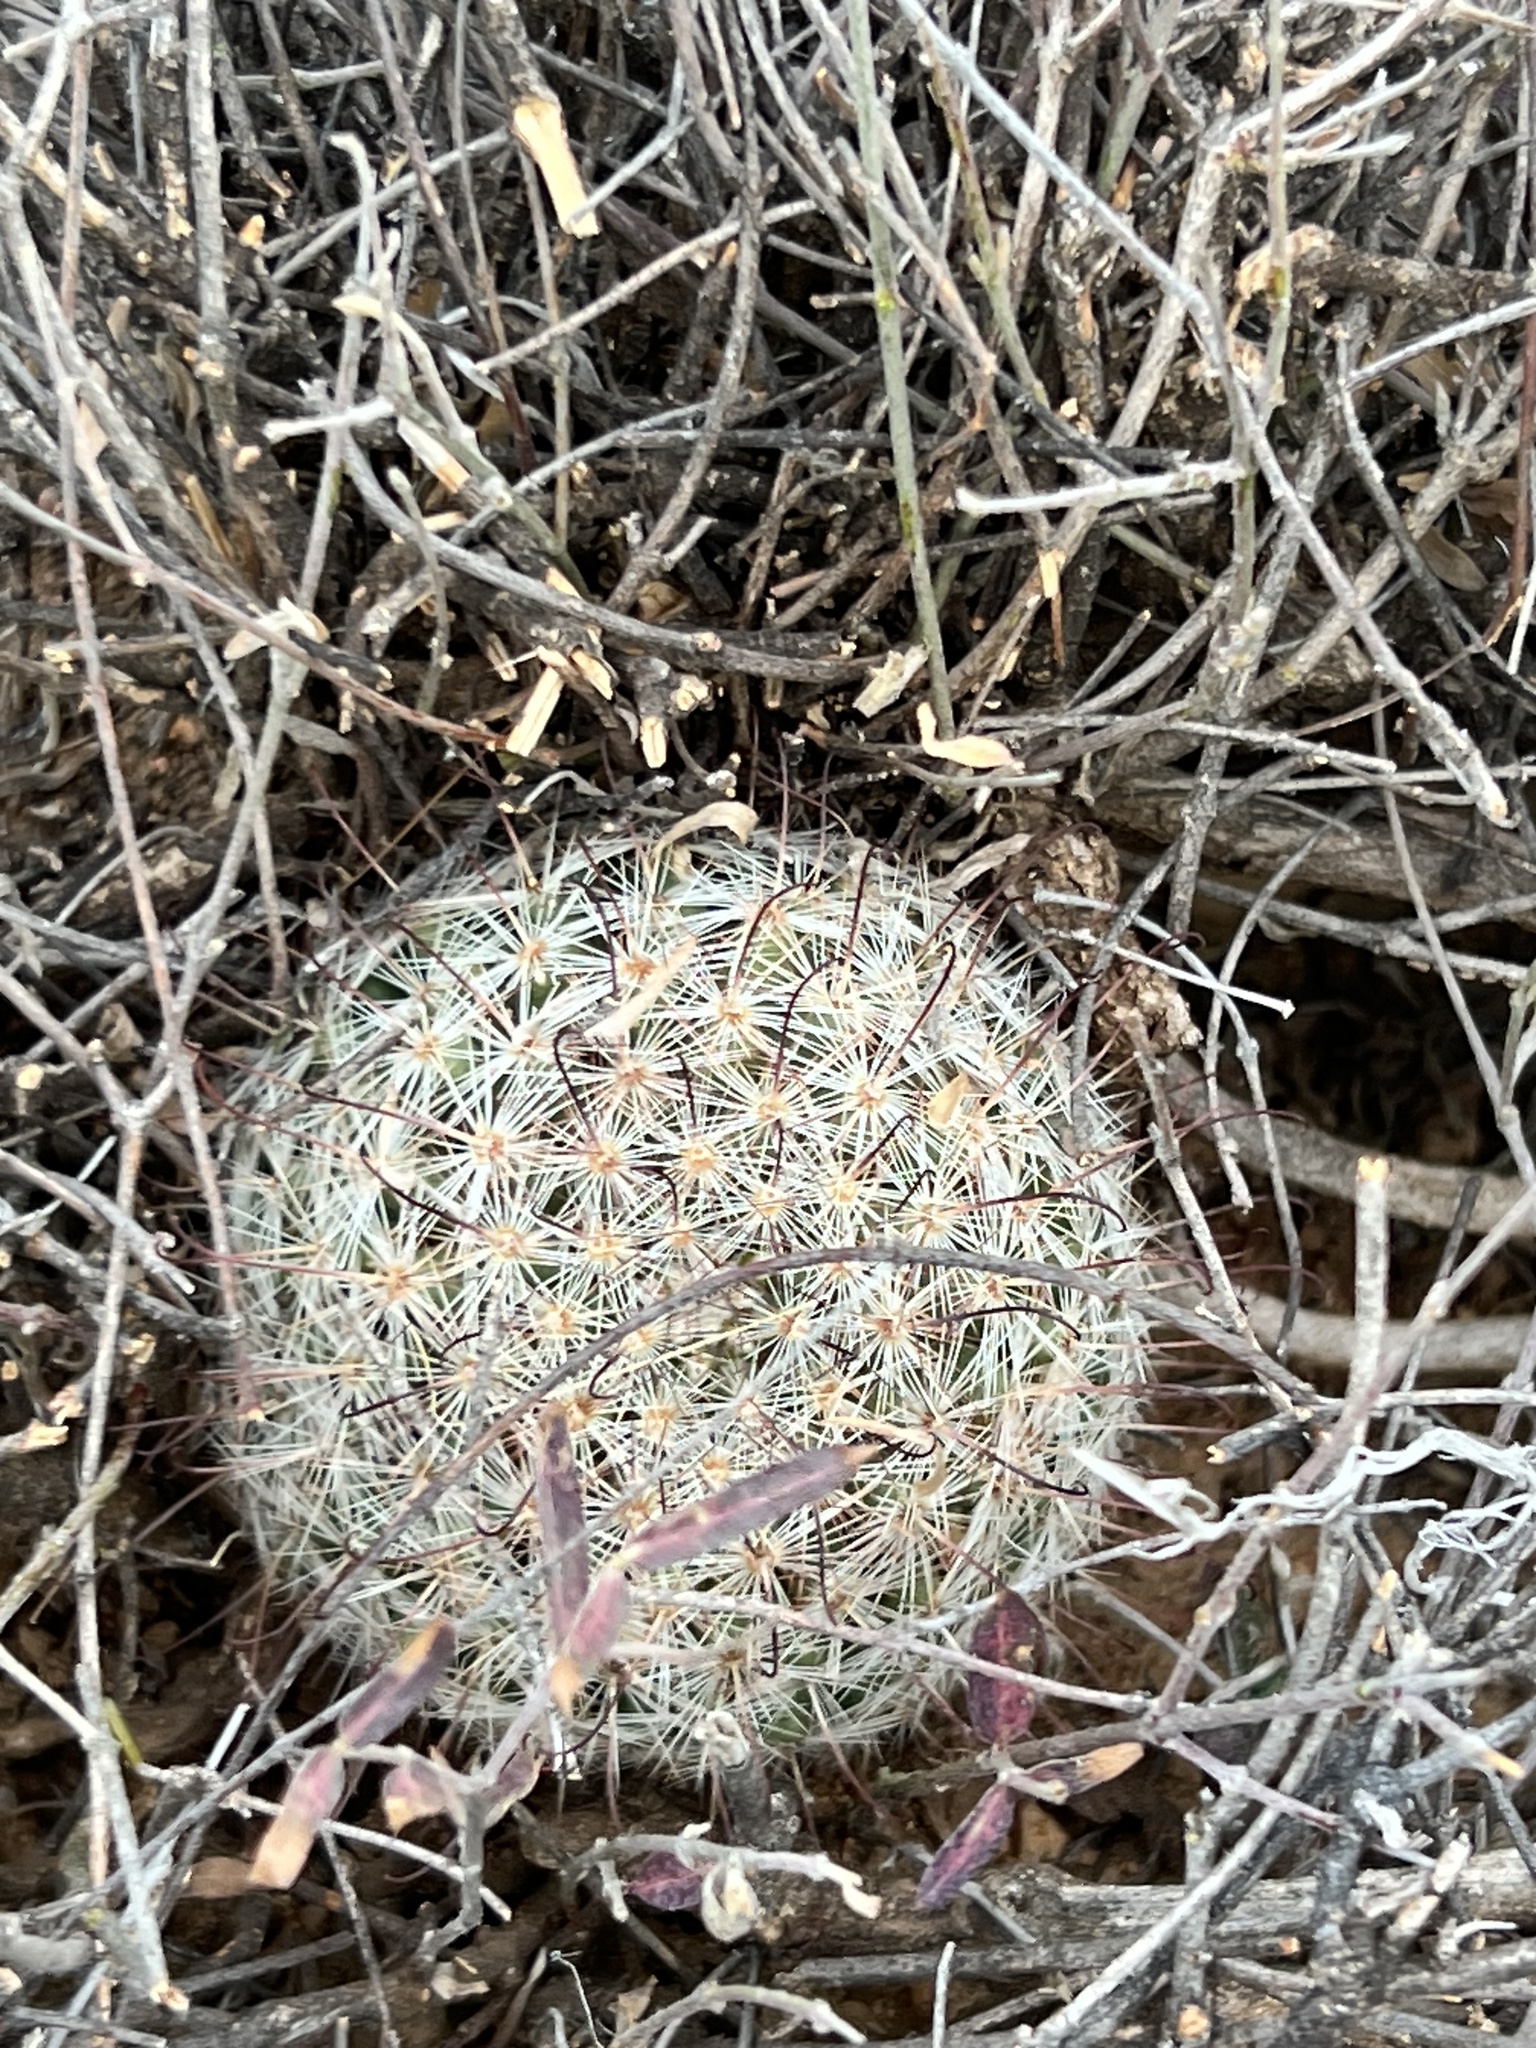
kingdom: Plantae
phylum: Tracheophyta
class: Magnoliopsida
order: Caryophyllales
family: Cactaceae
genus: Cochemiea
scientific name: Cochemiea grahamii
